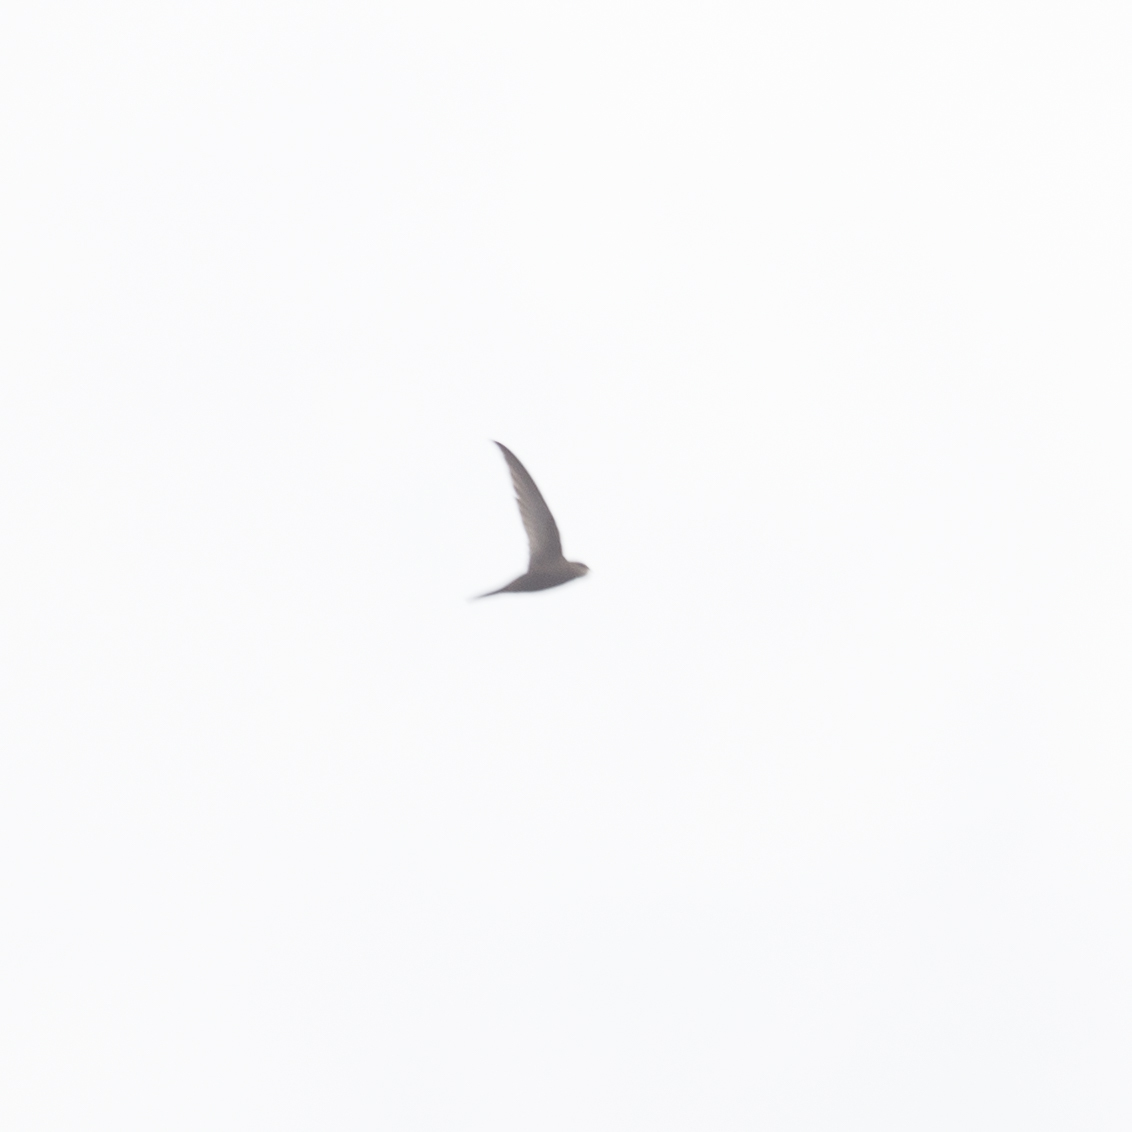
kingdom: Animalia
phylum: Chordata
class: Aves
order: Apodiformes
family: Apodidae
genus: Apus
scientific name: Apus apus
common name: Common swift
